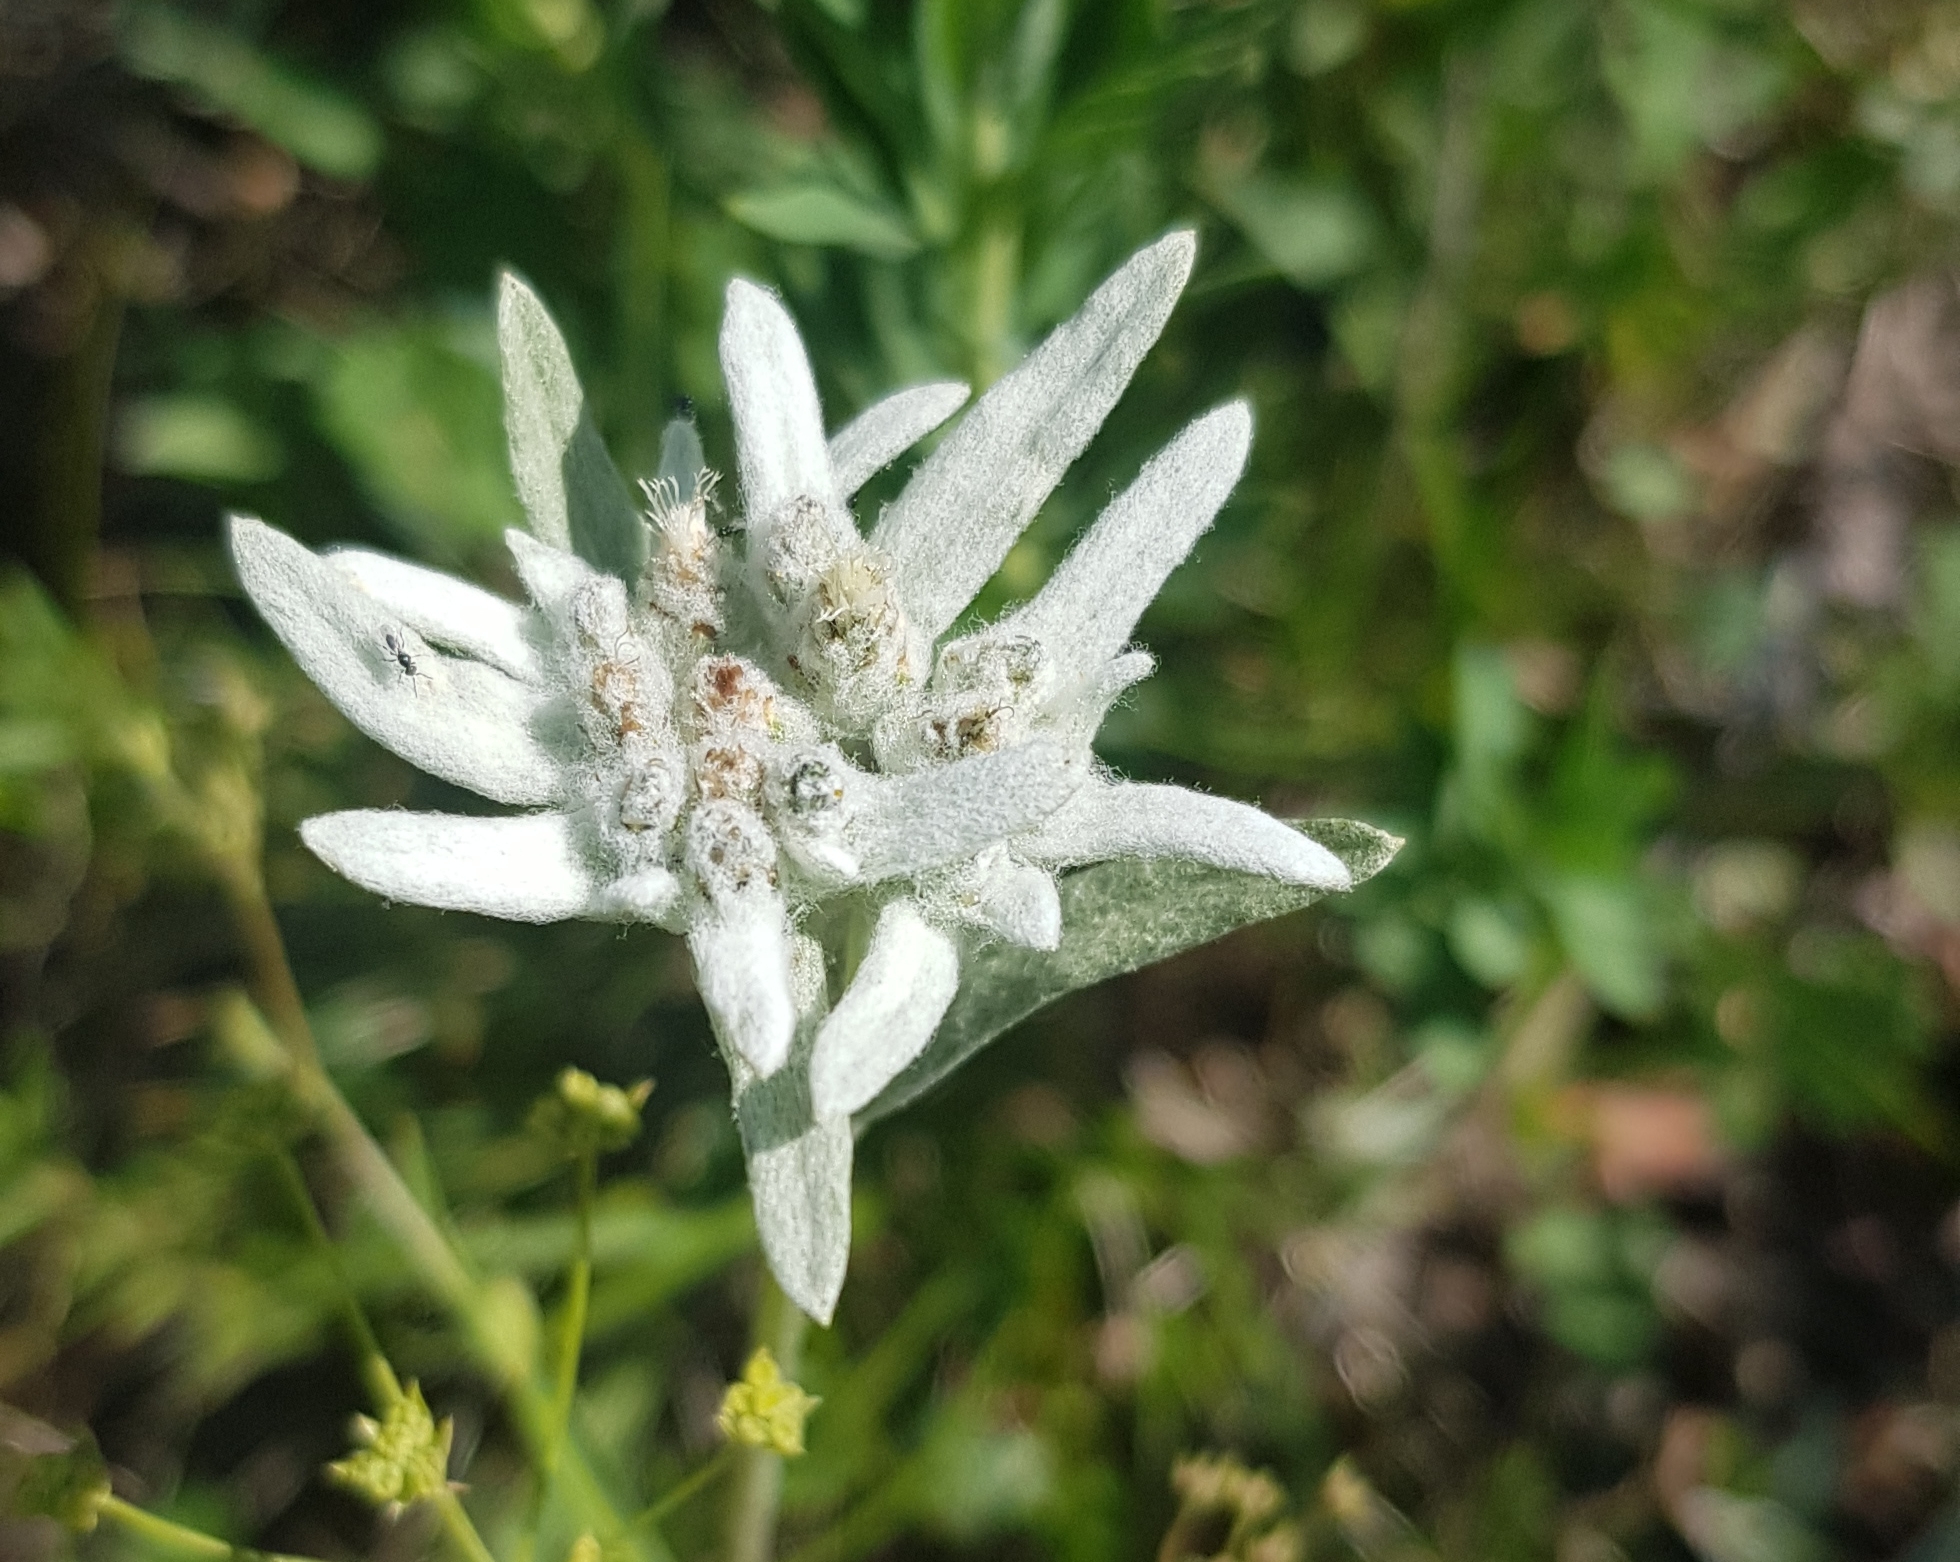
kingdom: Plantae
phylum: Tracheophyta
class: Magnoliopsida
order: Asterales
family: Asteraceae
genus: Leontopodium
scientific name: Leontopodium leontopodioides
